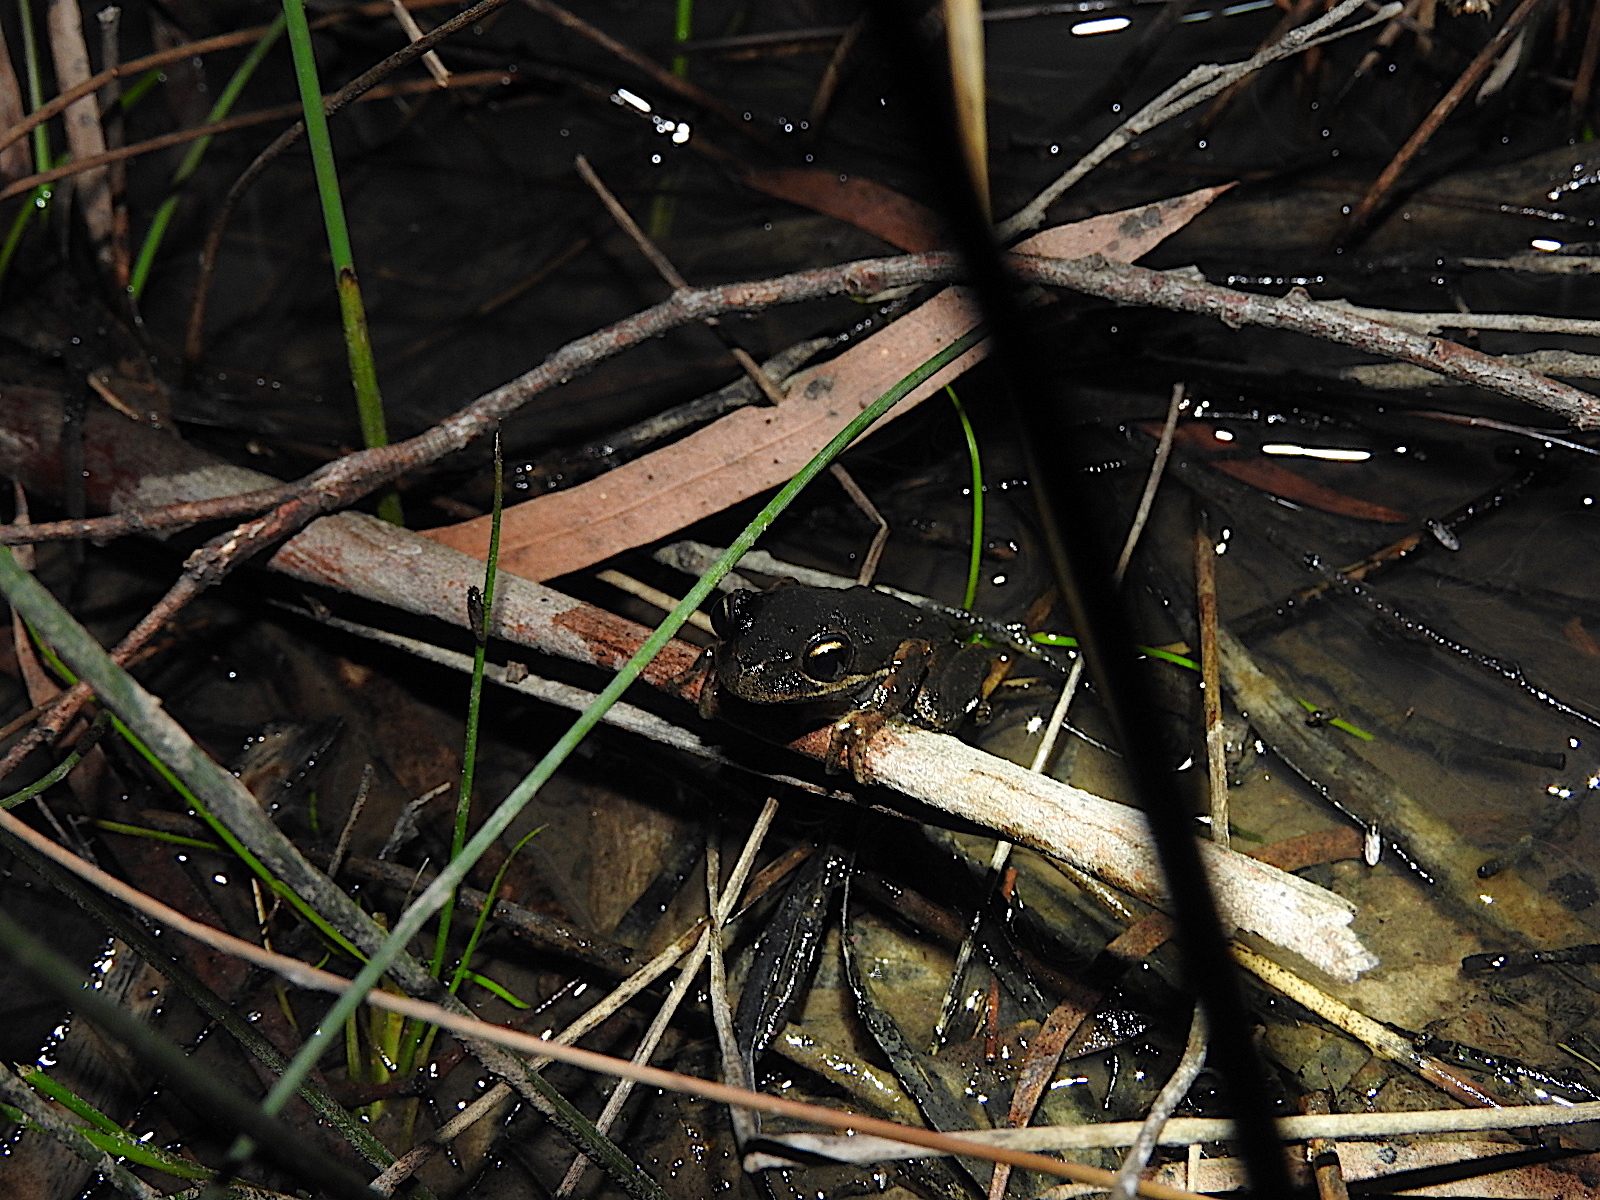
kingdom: Animalia
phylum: Chordata
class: Amphibia
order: Anura
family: Pelodryadidae
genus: Litoria
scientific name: Litoria ewingii
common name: Southern brown tree frog
